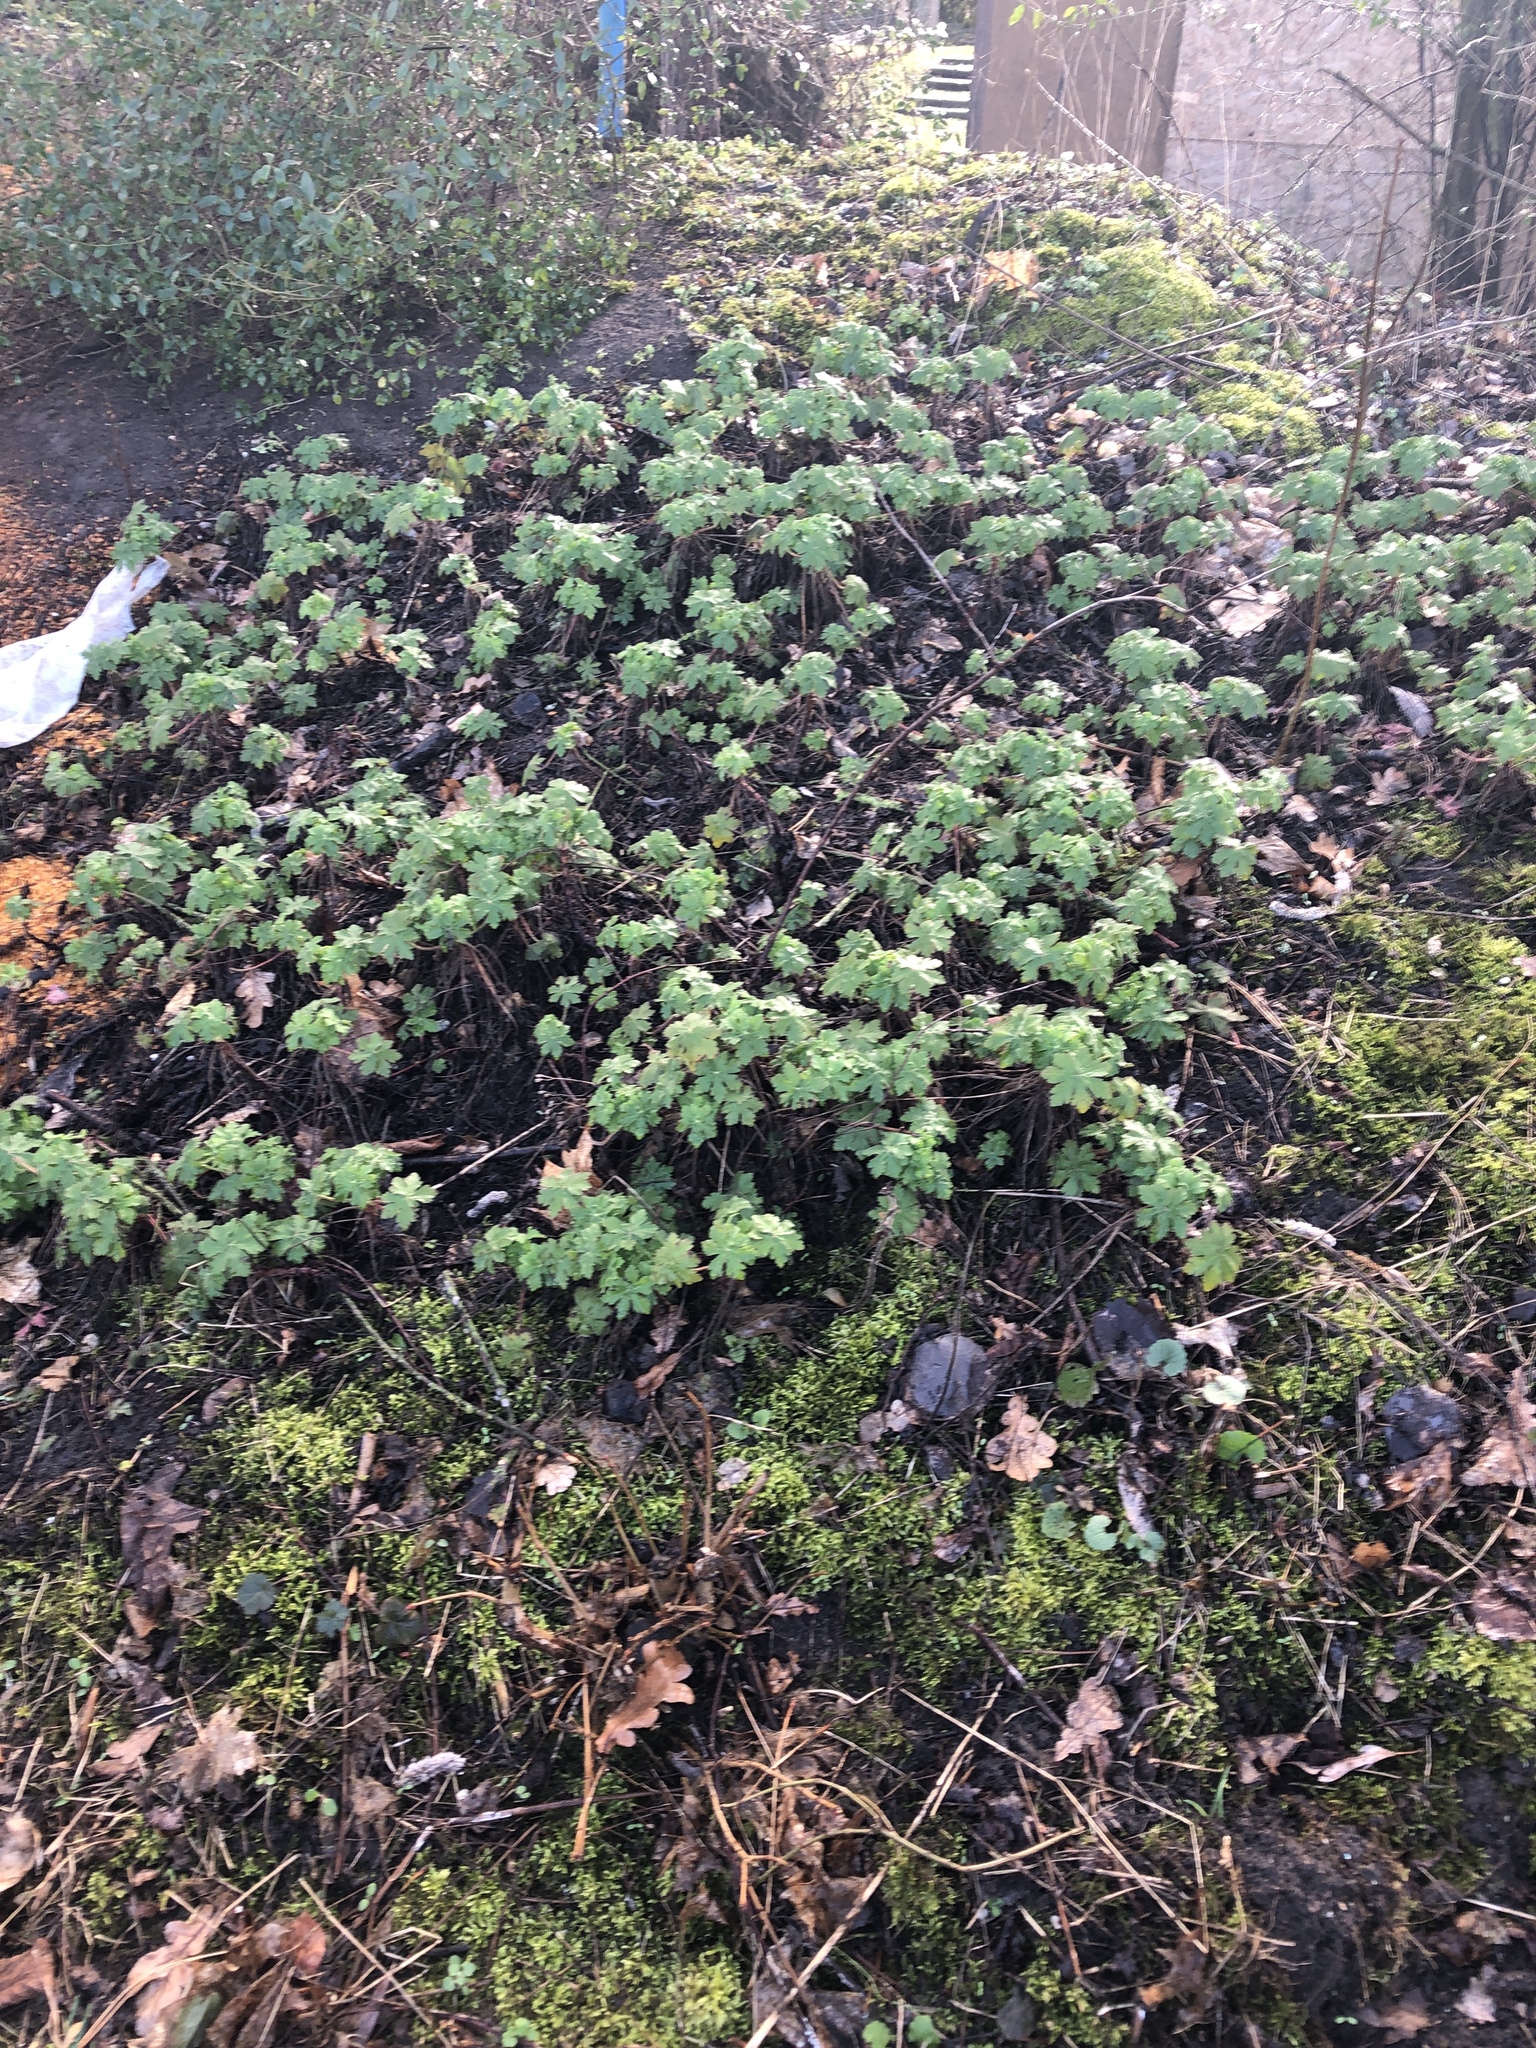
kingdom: Plantae
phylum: Tracheophyta
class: Magnoliopsida
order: Geraniales
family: Geraniaceae
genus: Geranium
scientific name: Geranium macrorrhizum
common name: Rock crane's-bill
